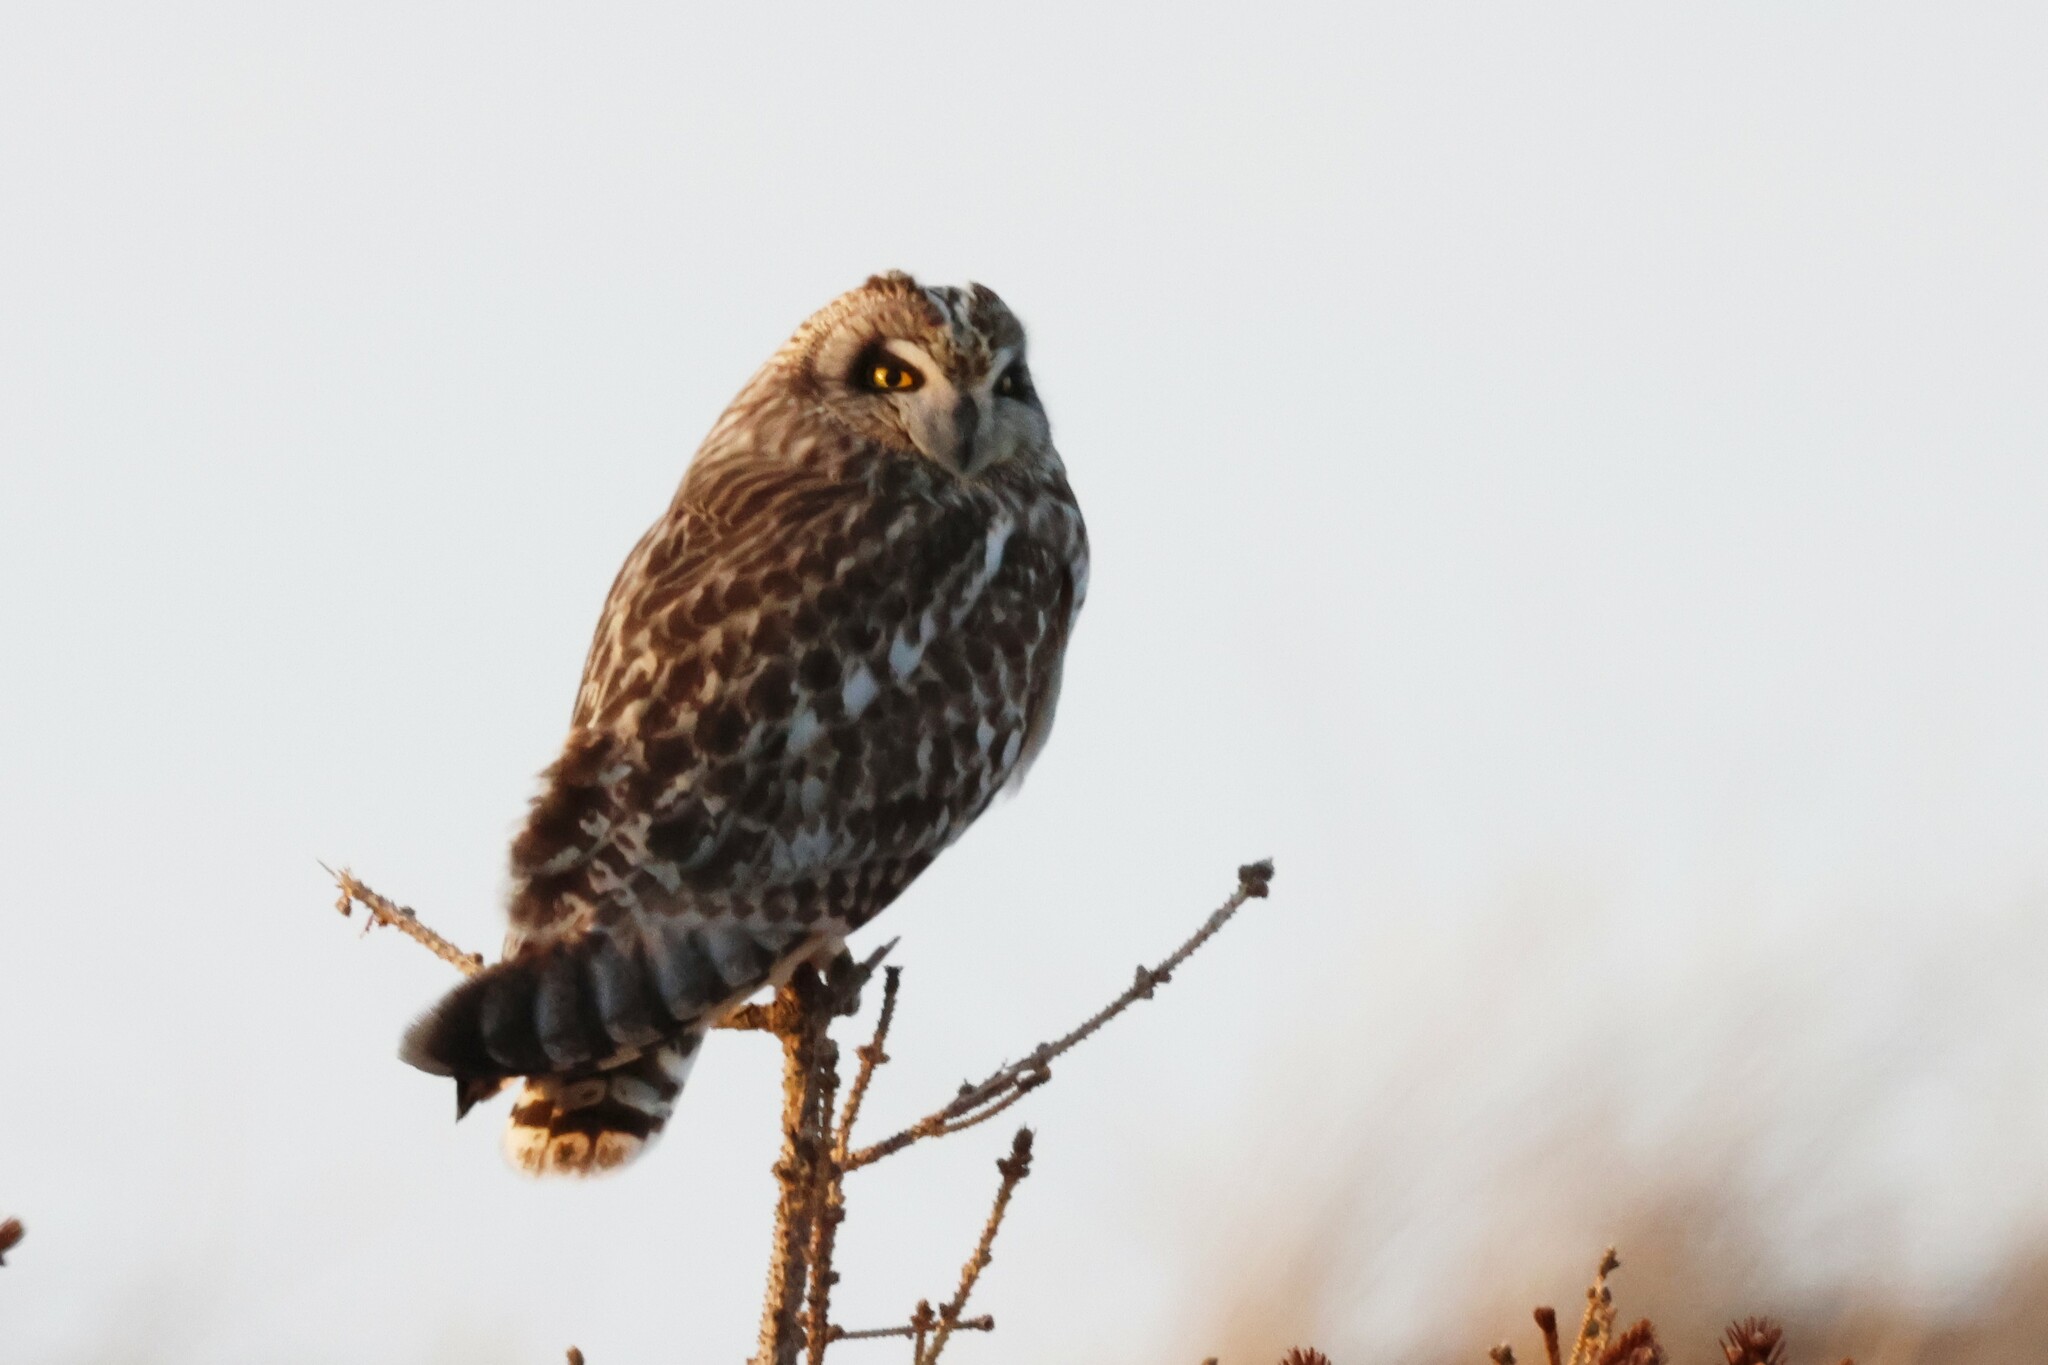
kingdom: Animalia
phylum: Chordata
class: Aves
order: Strigiformes
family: Strigidae
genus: Asio
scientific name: Asio flammeus
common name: Short-eared owl
